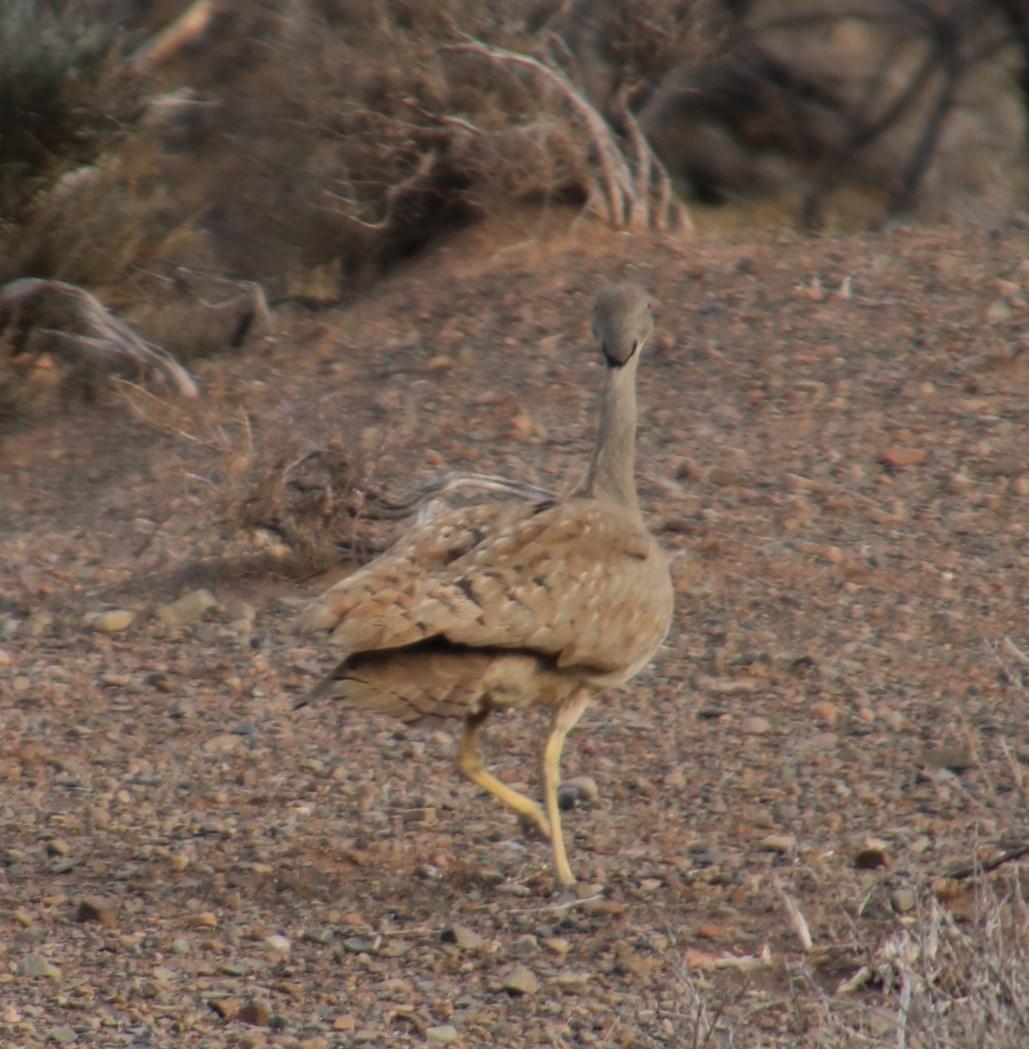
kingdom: Animalia
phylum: Chordata
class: Aves
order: Otidiformes
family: Otididae
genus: Eupodotis
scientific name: Eupodotis vigorsii
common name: Karoo korhaan
